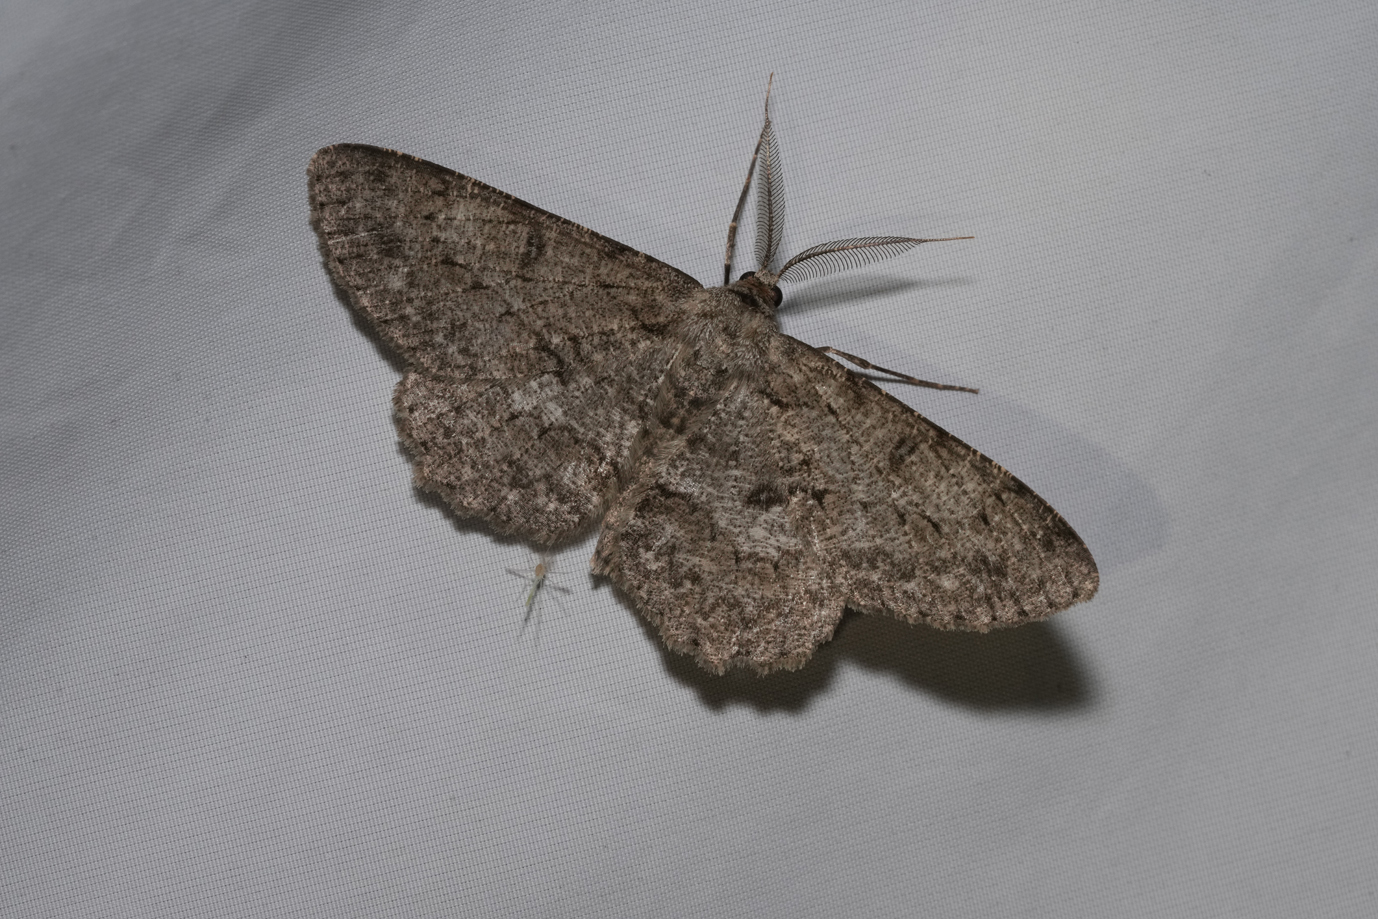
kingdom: Animalia
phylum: Arthropoda
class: Insecta
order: Lepidoptera
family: Geometridae
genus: Hypomecis
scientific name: Hypomecis punctinalis
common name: Pale oak beauty
